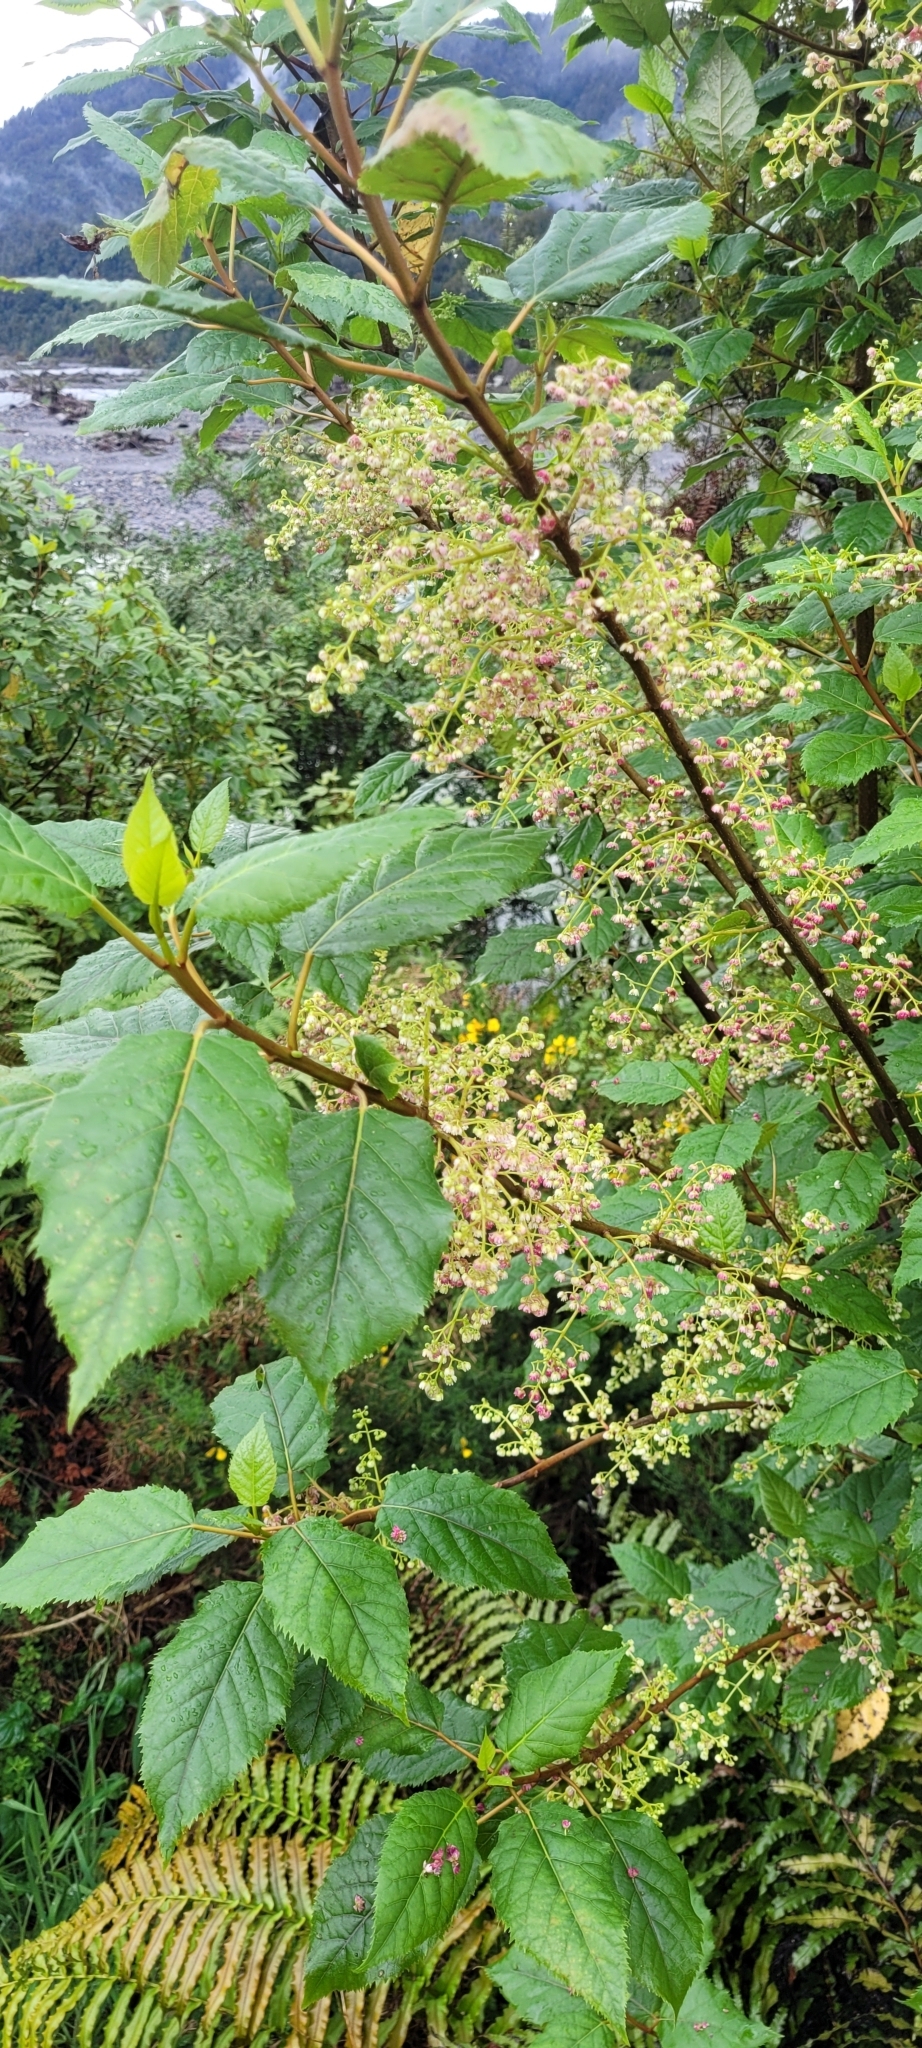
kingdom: Plantae
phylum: Tracheophyta
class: Magnoliopsida
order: Oxalidales
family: Elaeocarpaceae
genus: Aristotelia
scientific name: Aristotelia serrata
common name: New zealand wineberry
